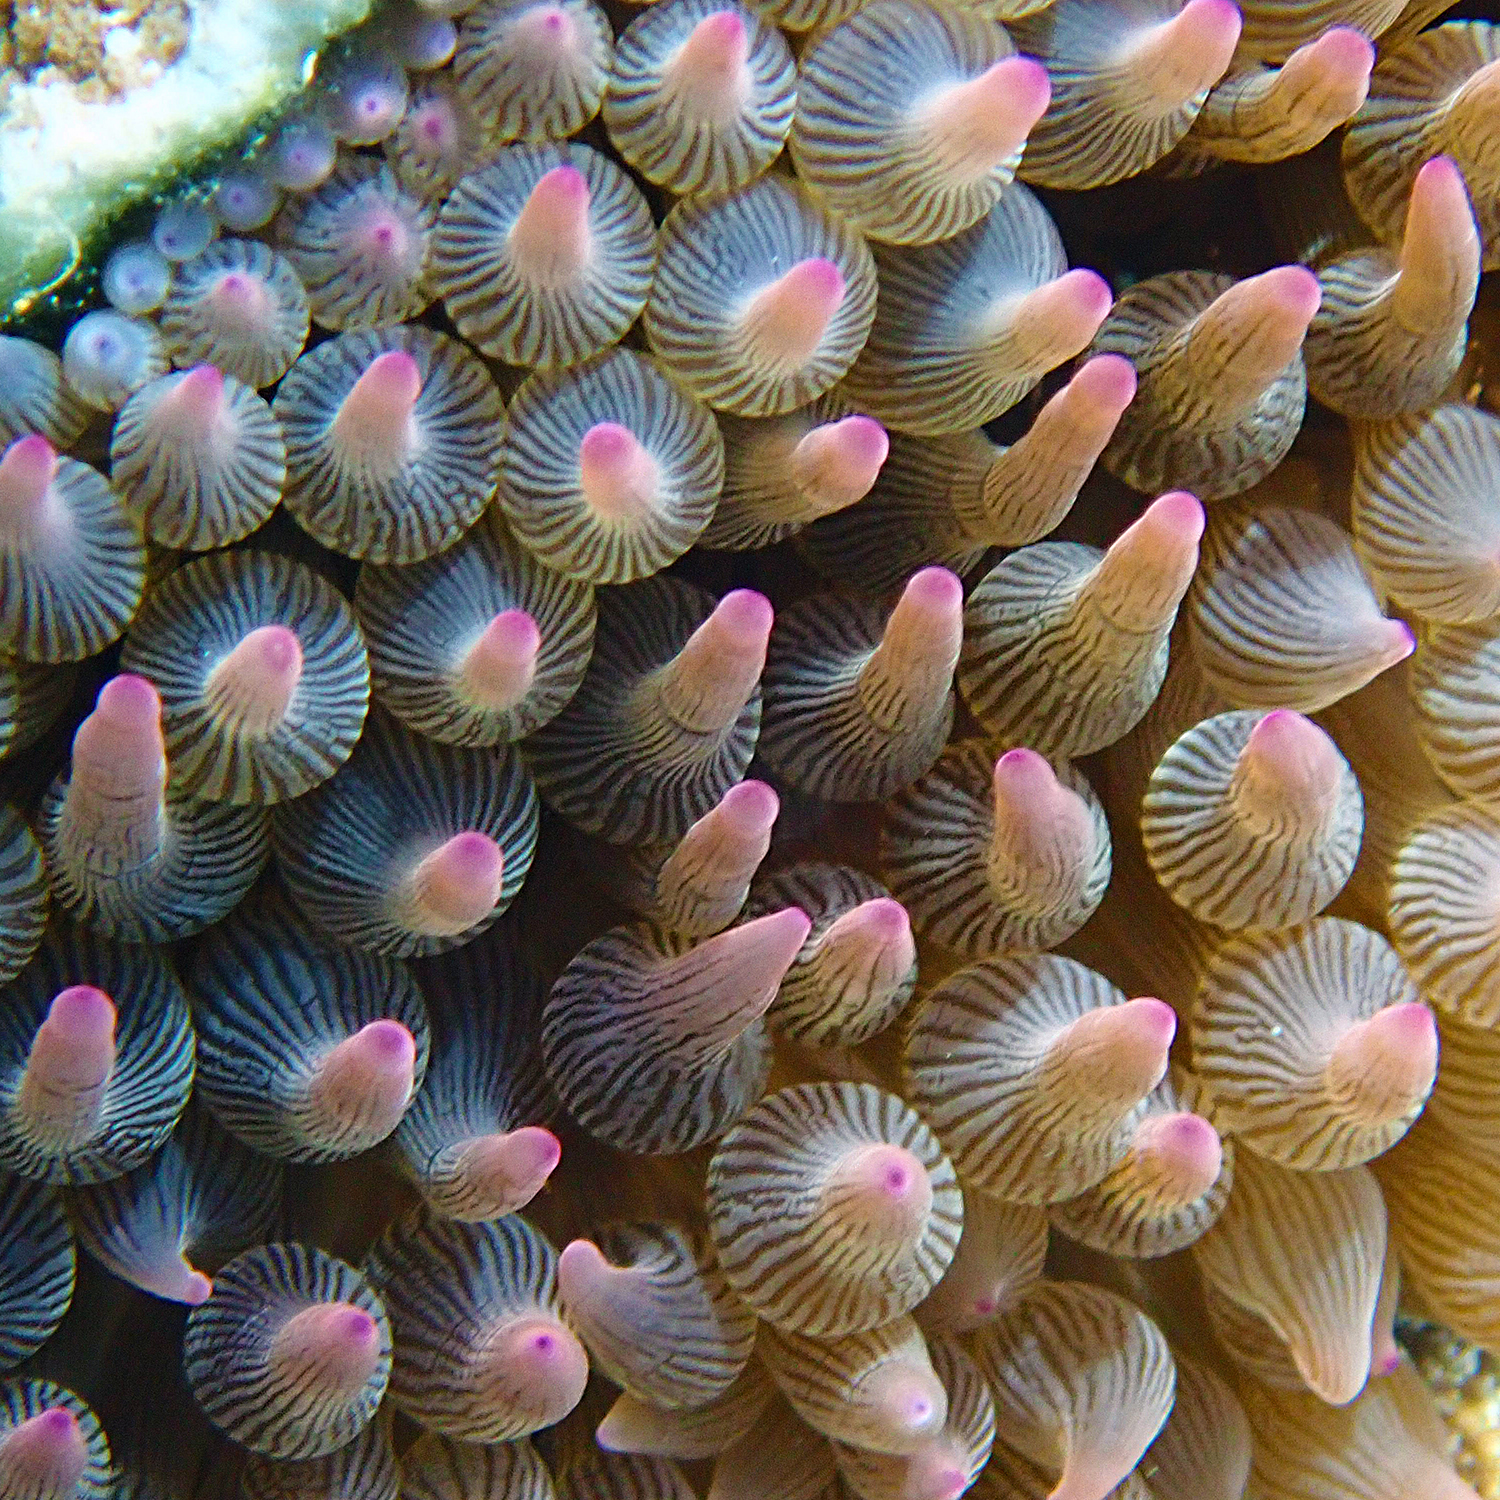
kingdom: Animalia
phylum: Cnidaria
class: Anthozoa
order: Actiniaria
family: Actiniidae
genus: Entacmaea
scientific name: Entacmaea quadricolor
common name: Bulb tentacle sea anemone
